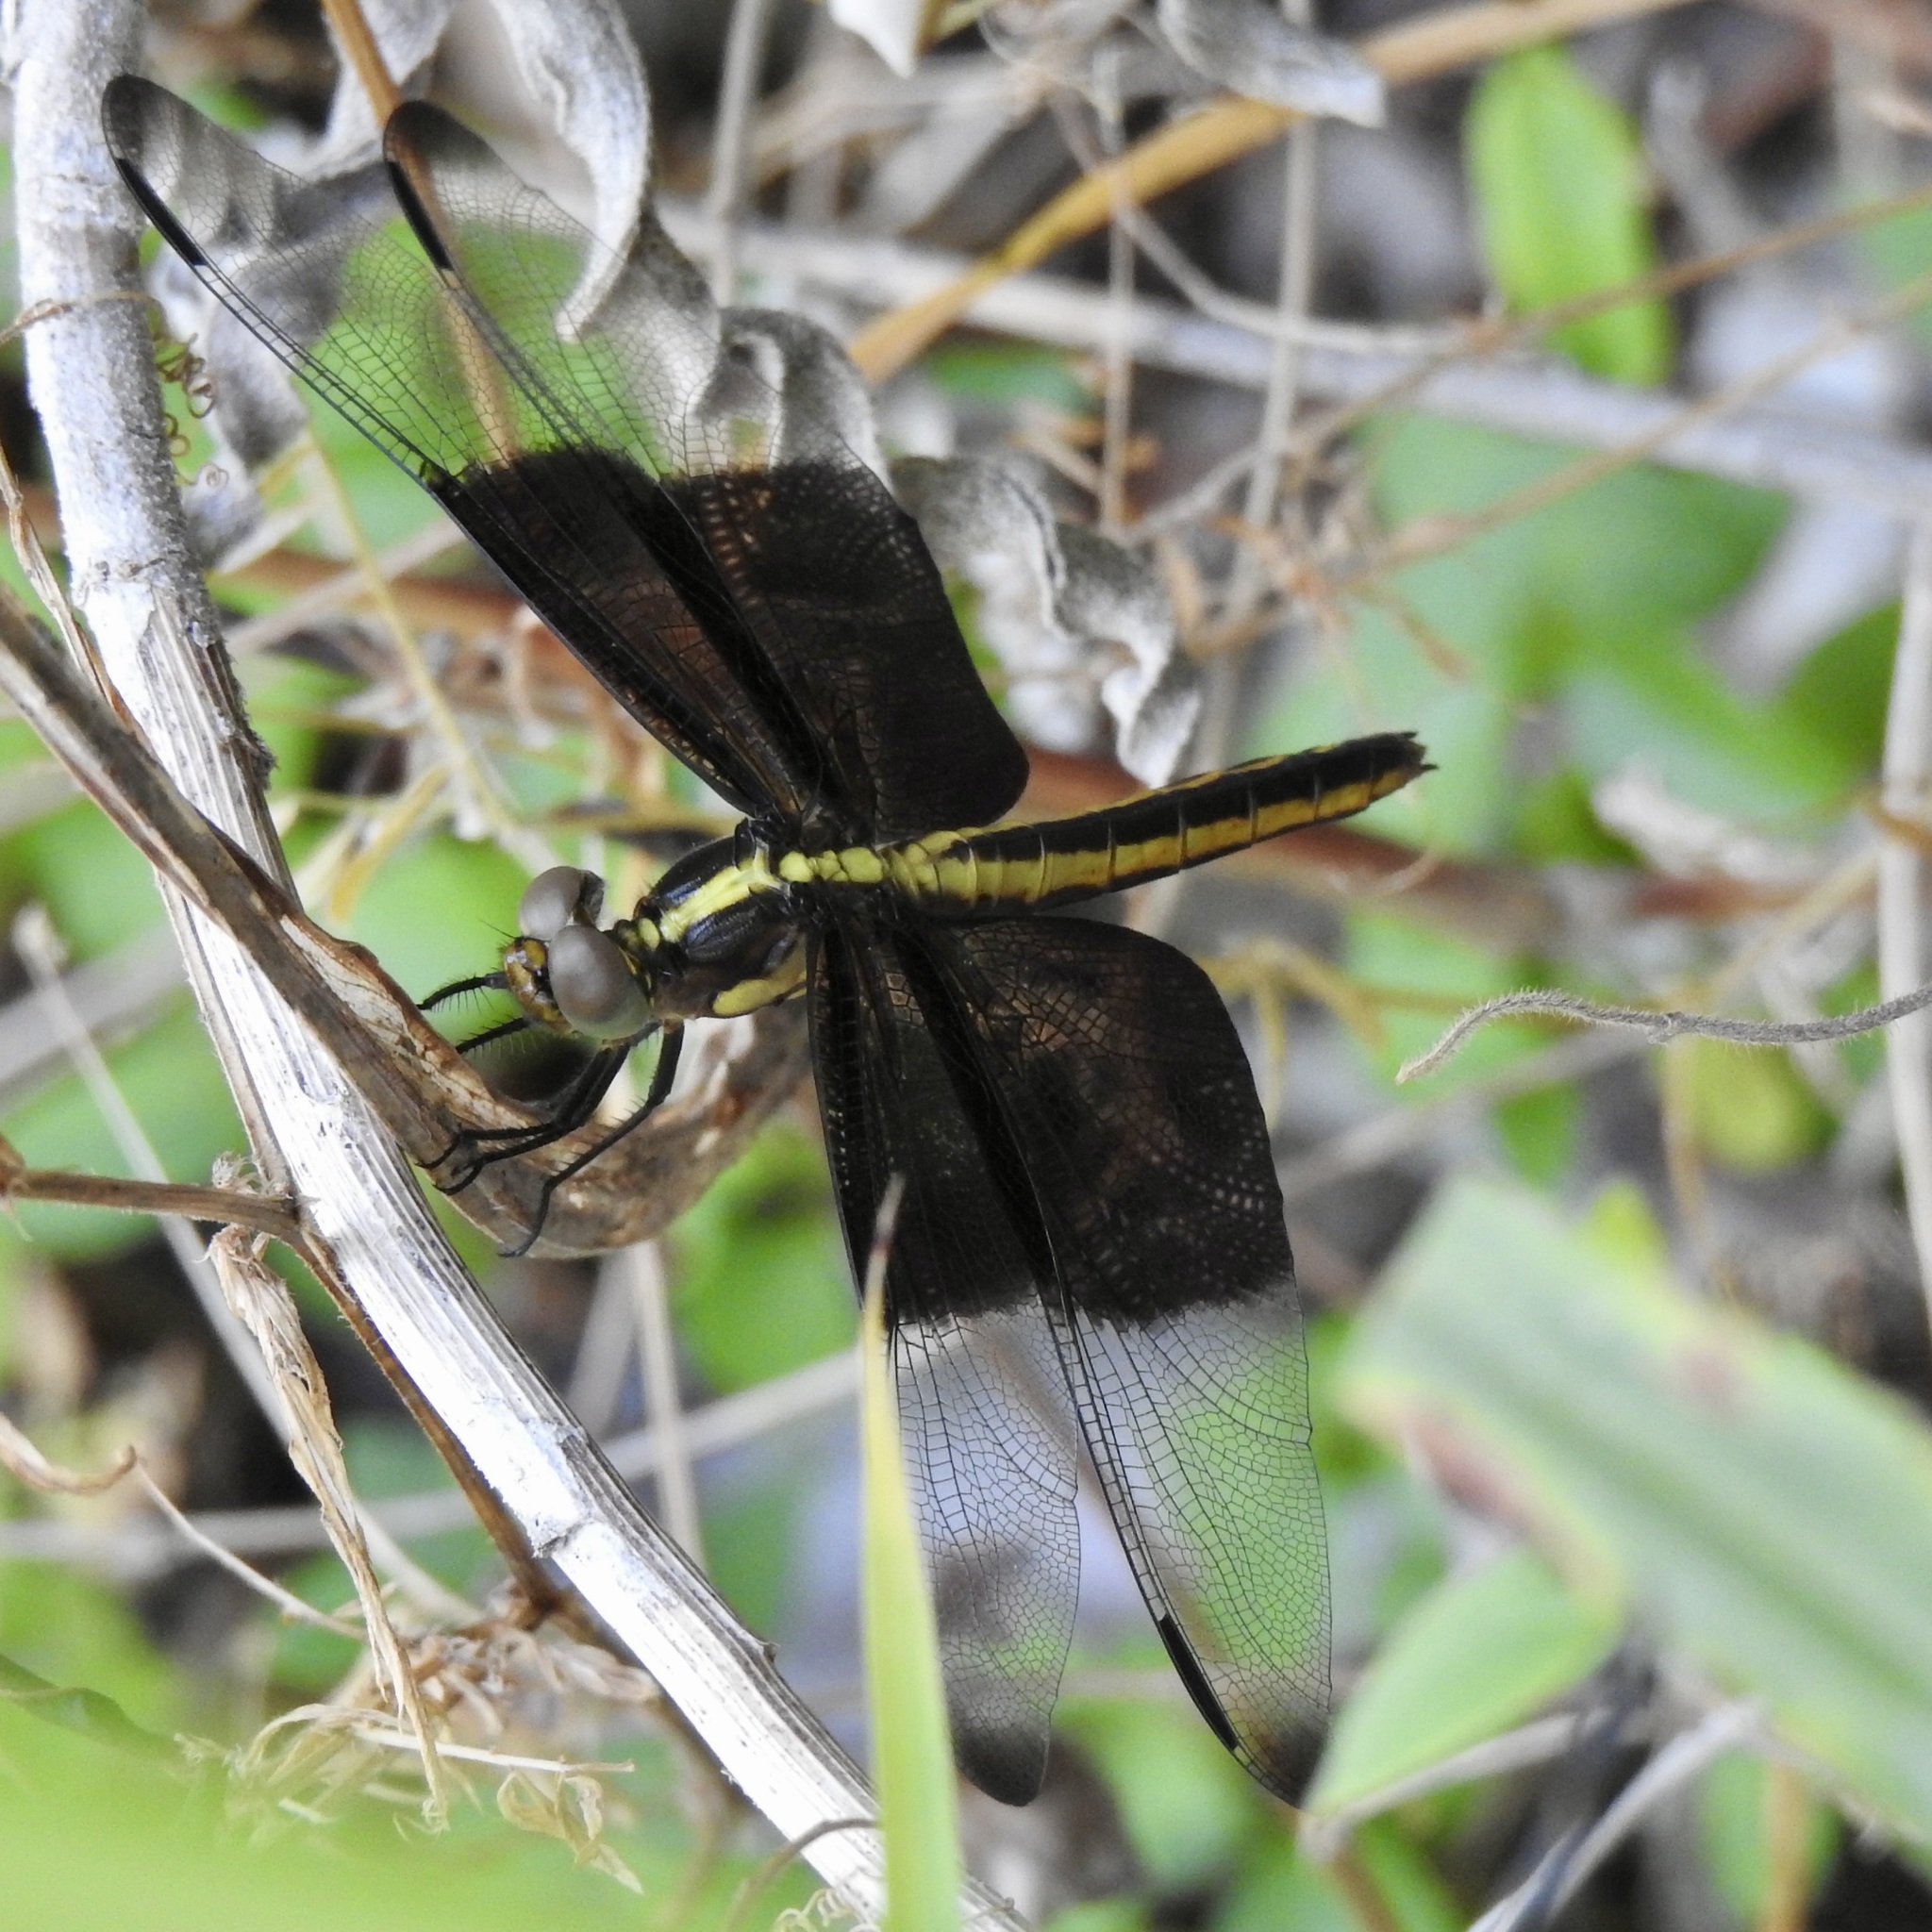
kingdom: Animalia
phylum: Arthropoda
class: Insecta
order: Odonata
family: Libellulidae
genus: Libellula
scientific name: Libellula luctuosa
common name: Widow skimmer
